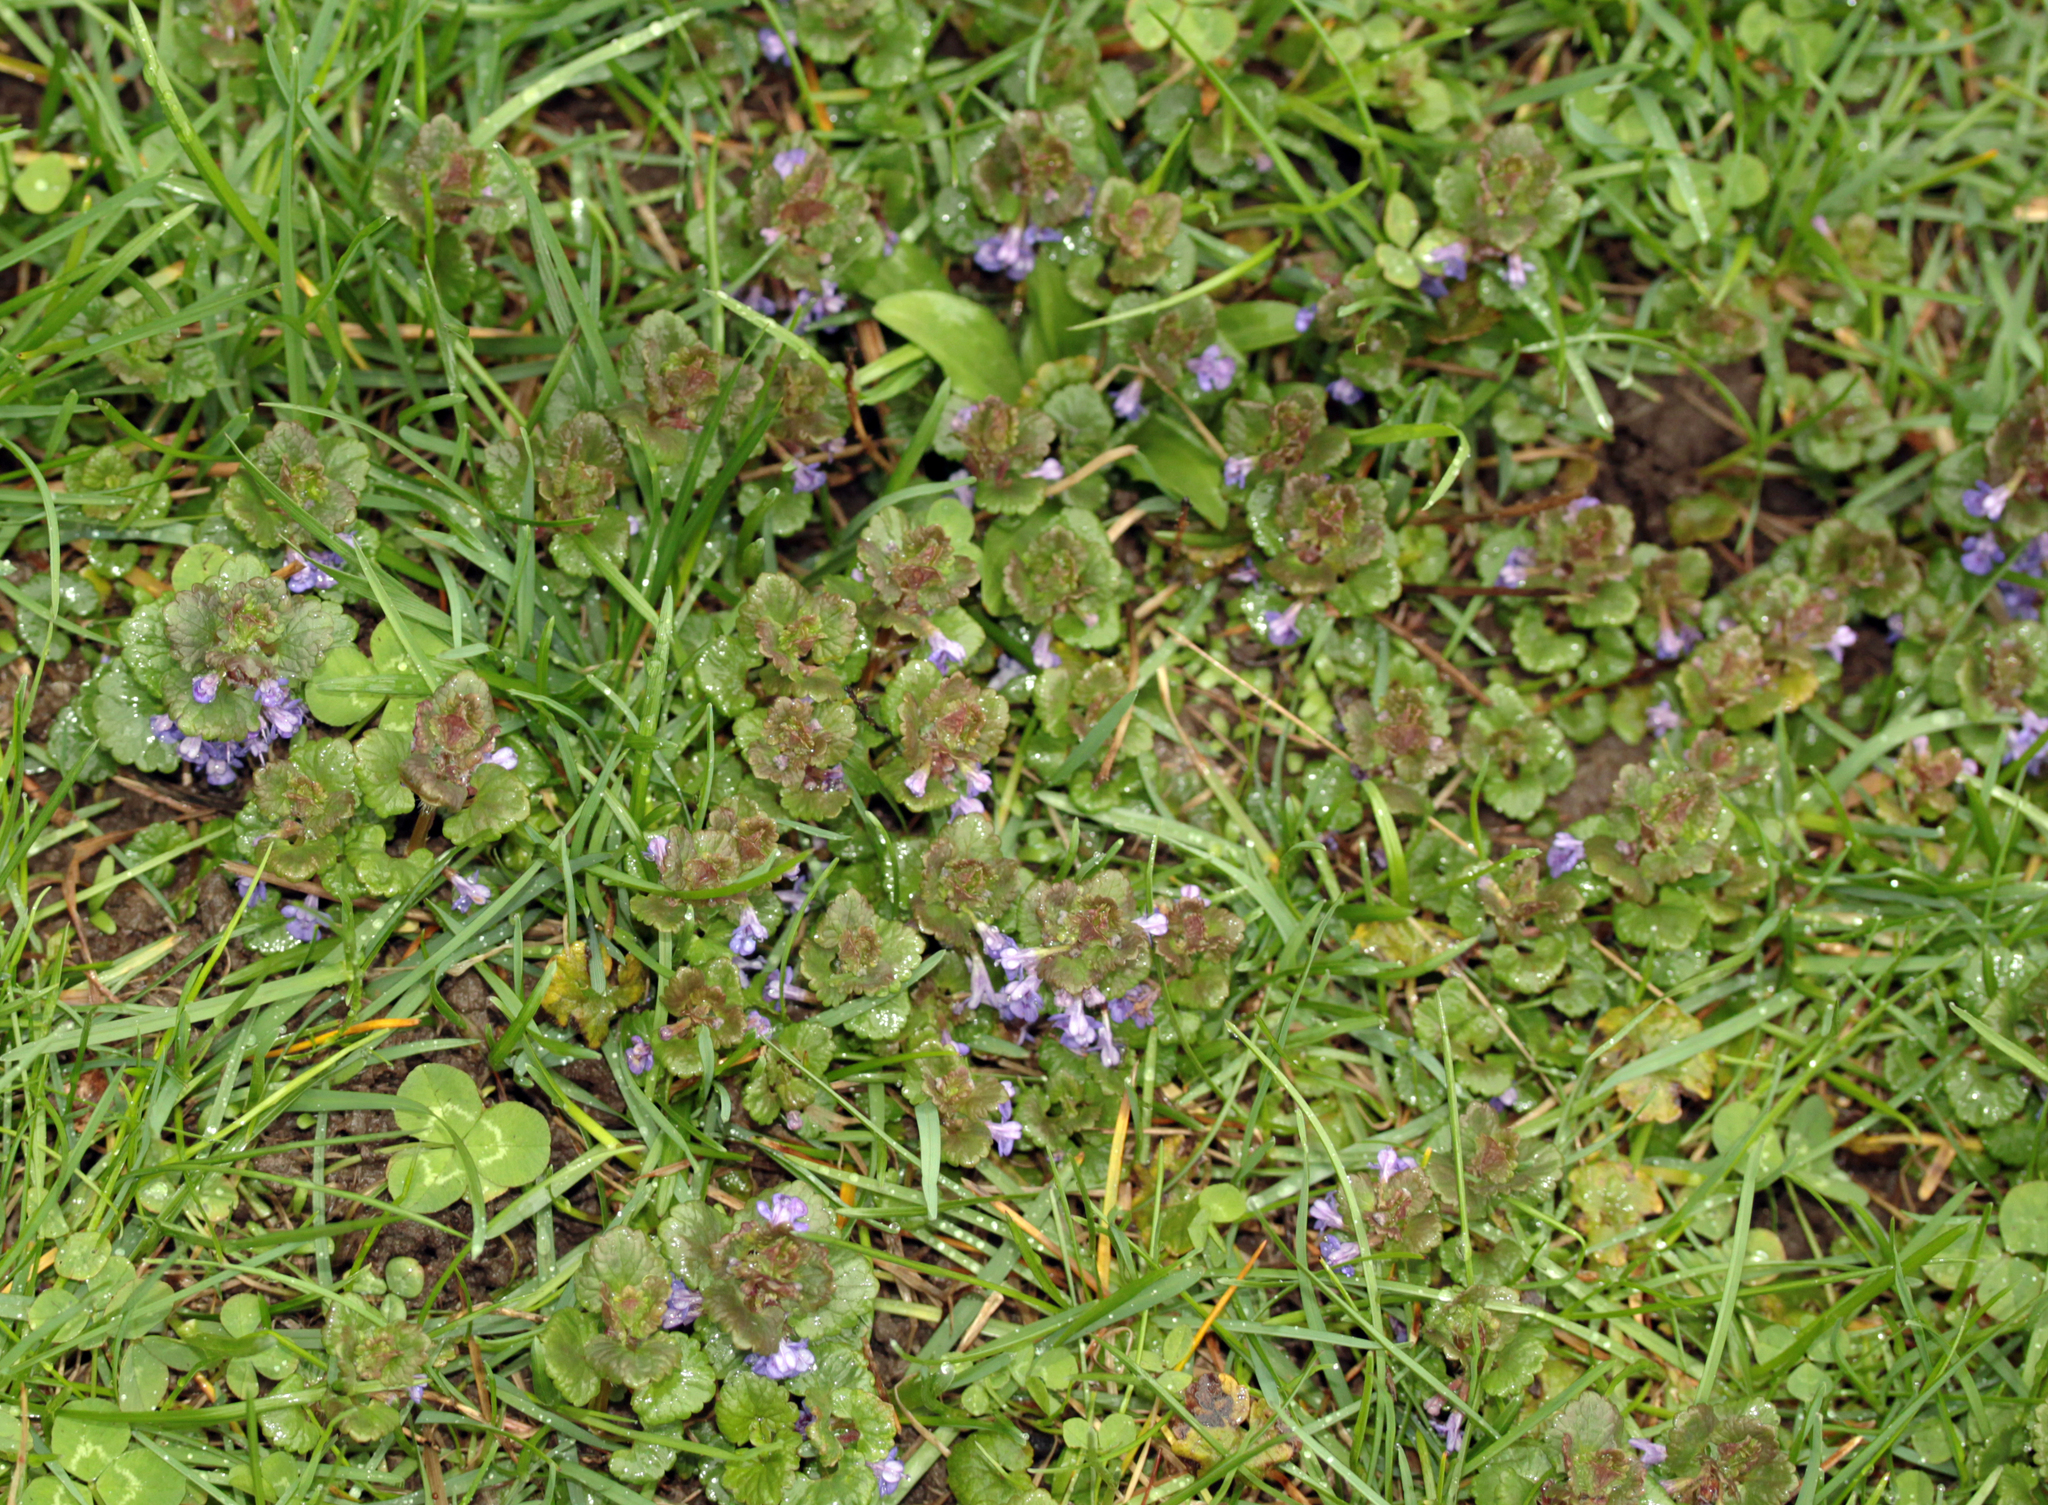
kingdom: Plantae
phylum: Tracheophyta
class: Magnoliopsida
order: Lamiales
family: Lamiaceae
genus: Glechoma
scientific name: Glechoma hederacea
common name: Ground ivy
